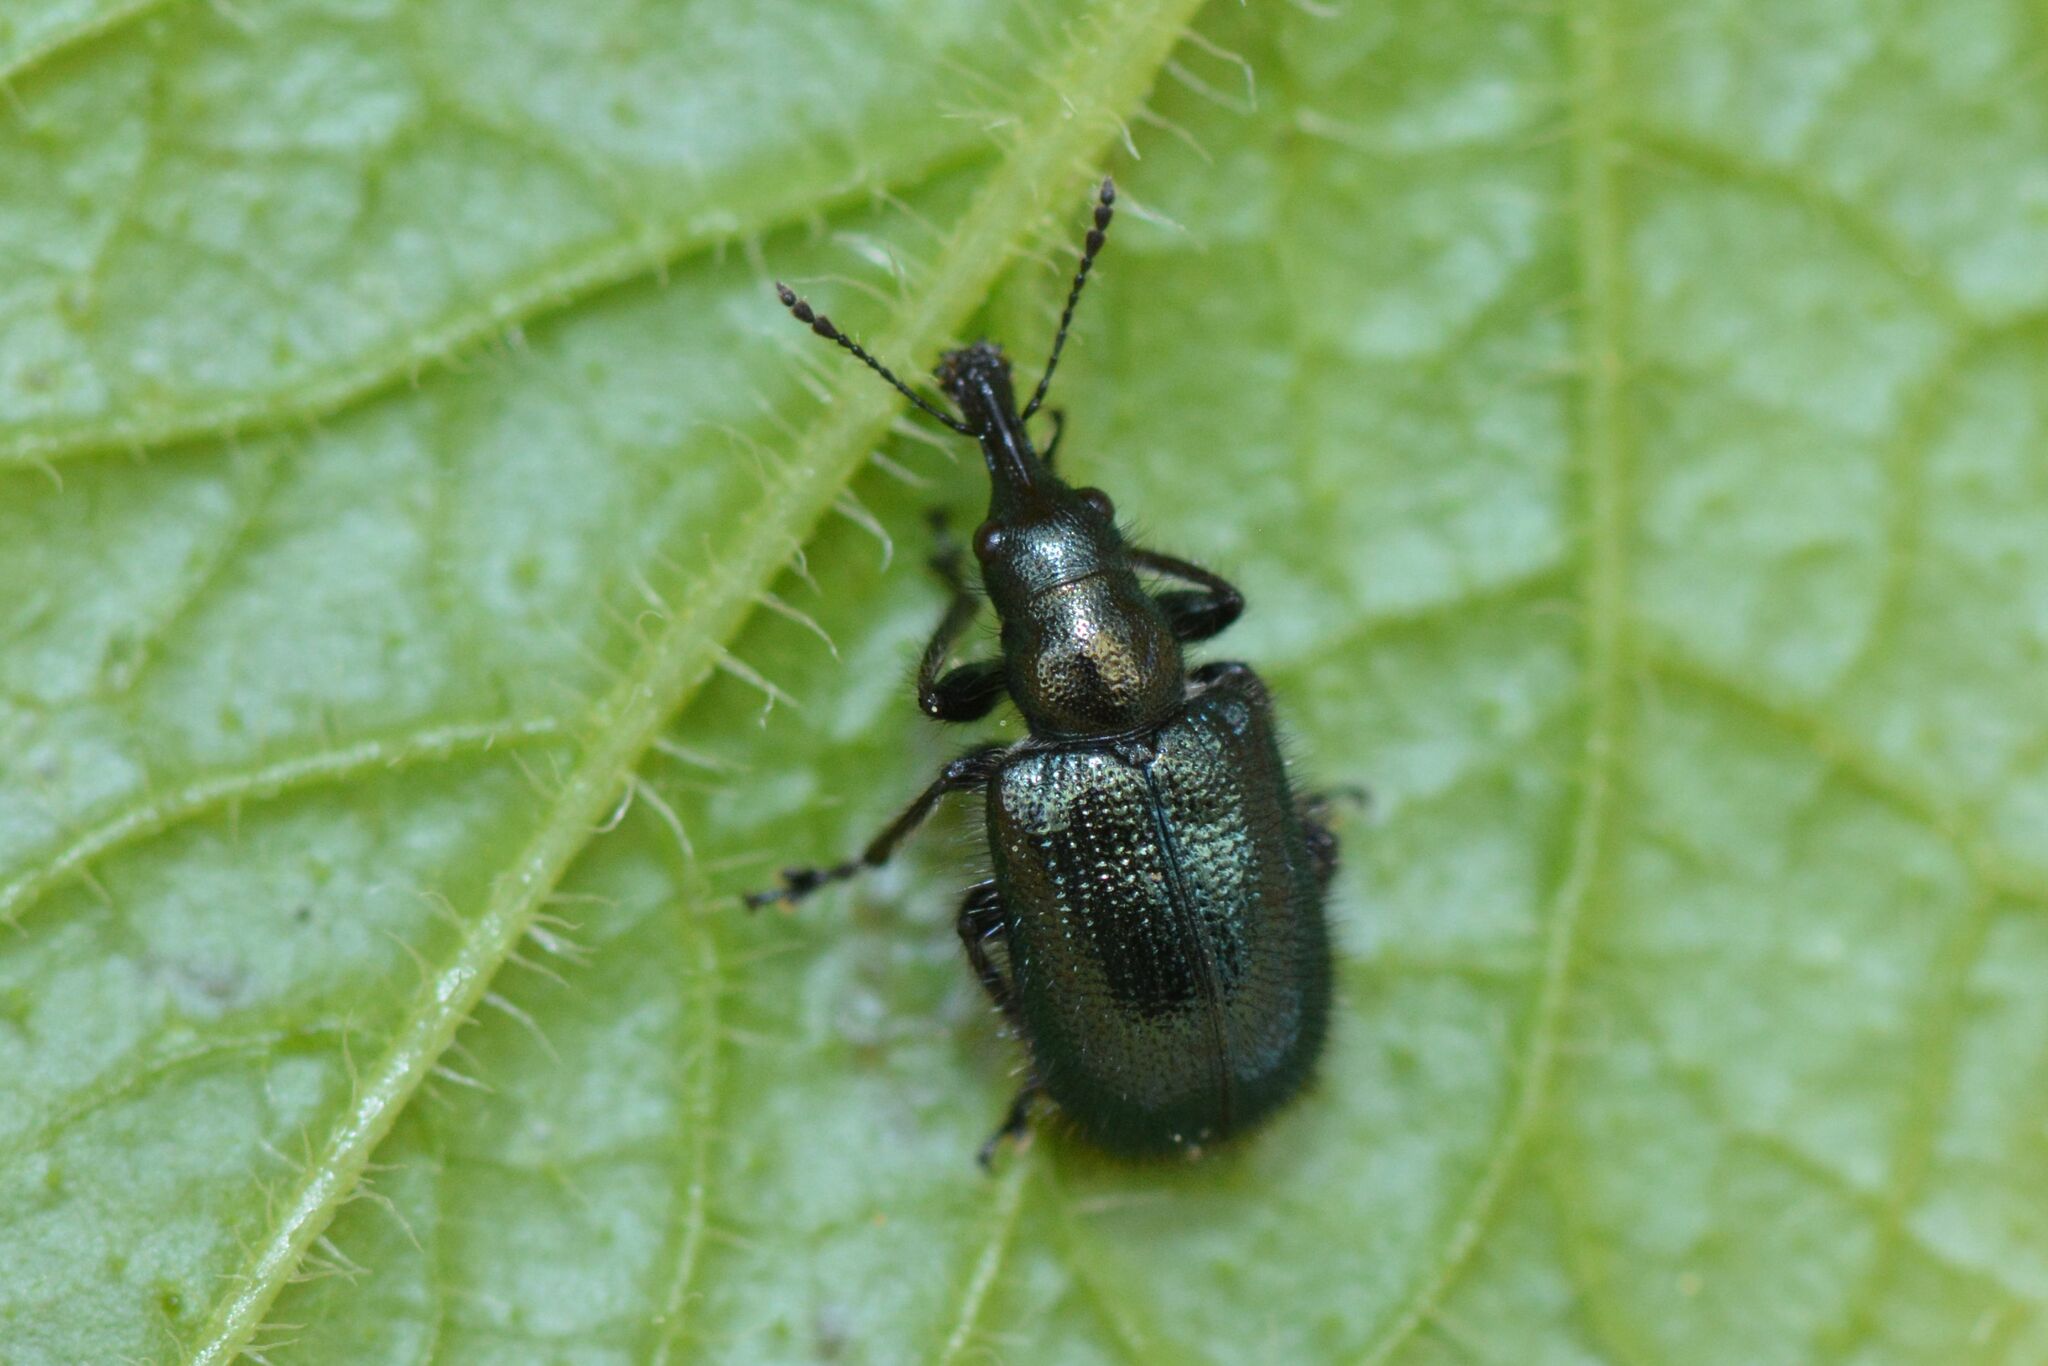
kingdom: Animalia
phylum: Arthropoda
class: Insecta
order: Coleoptera
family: Attelabidae
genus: Lasiorhynchites
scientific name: Lasiorhynchites cavifrons
